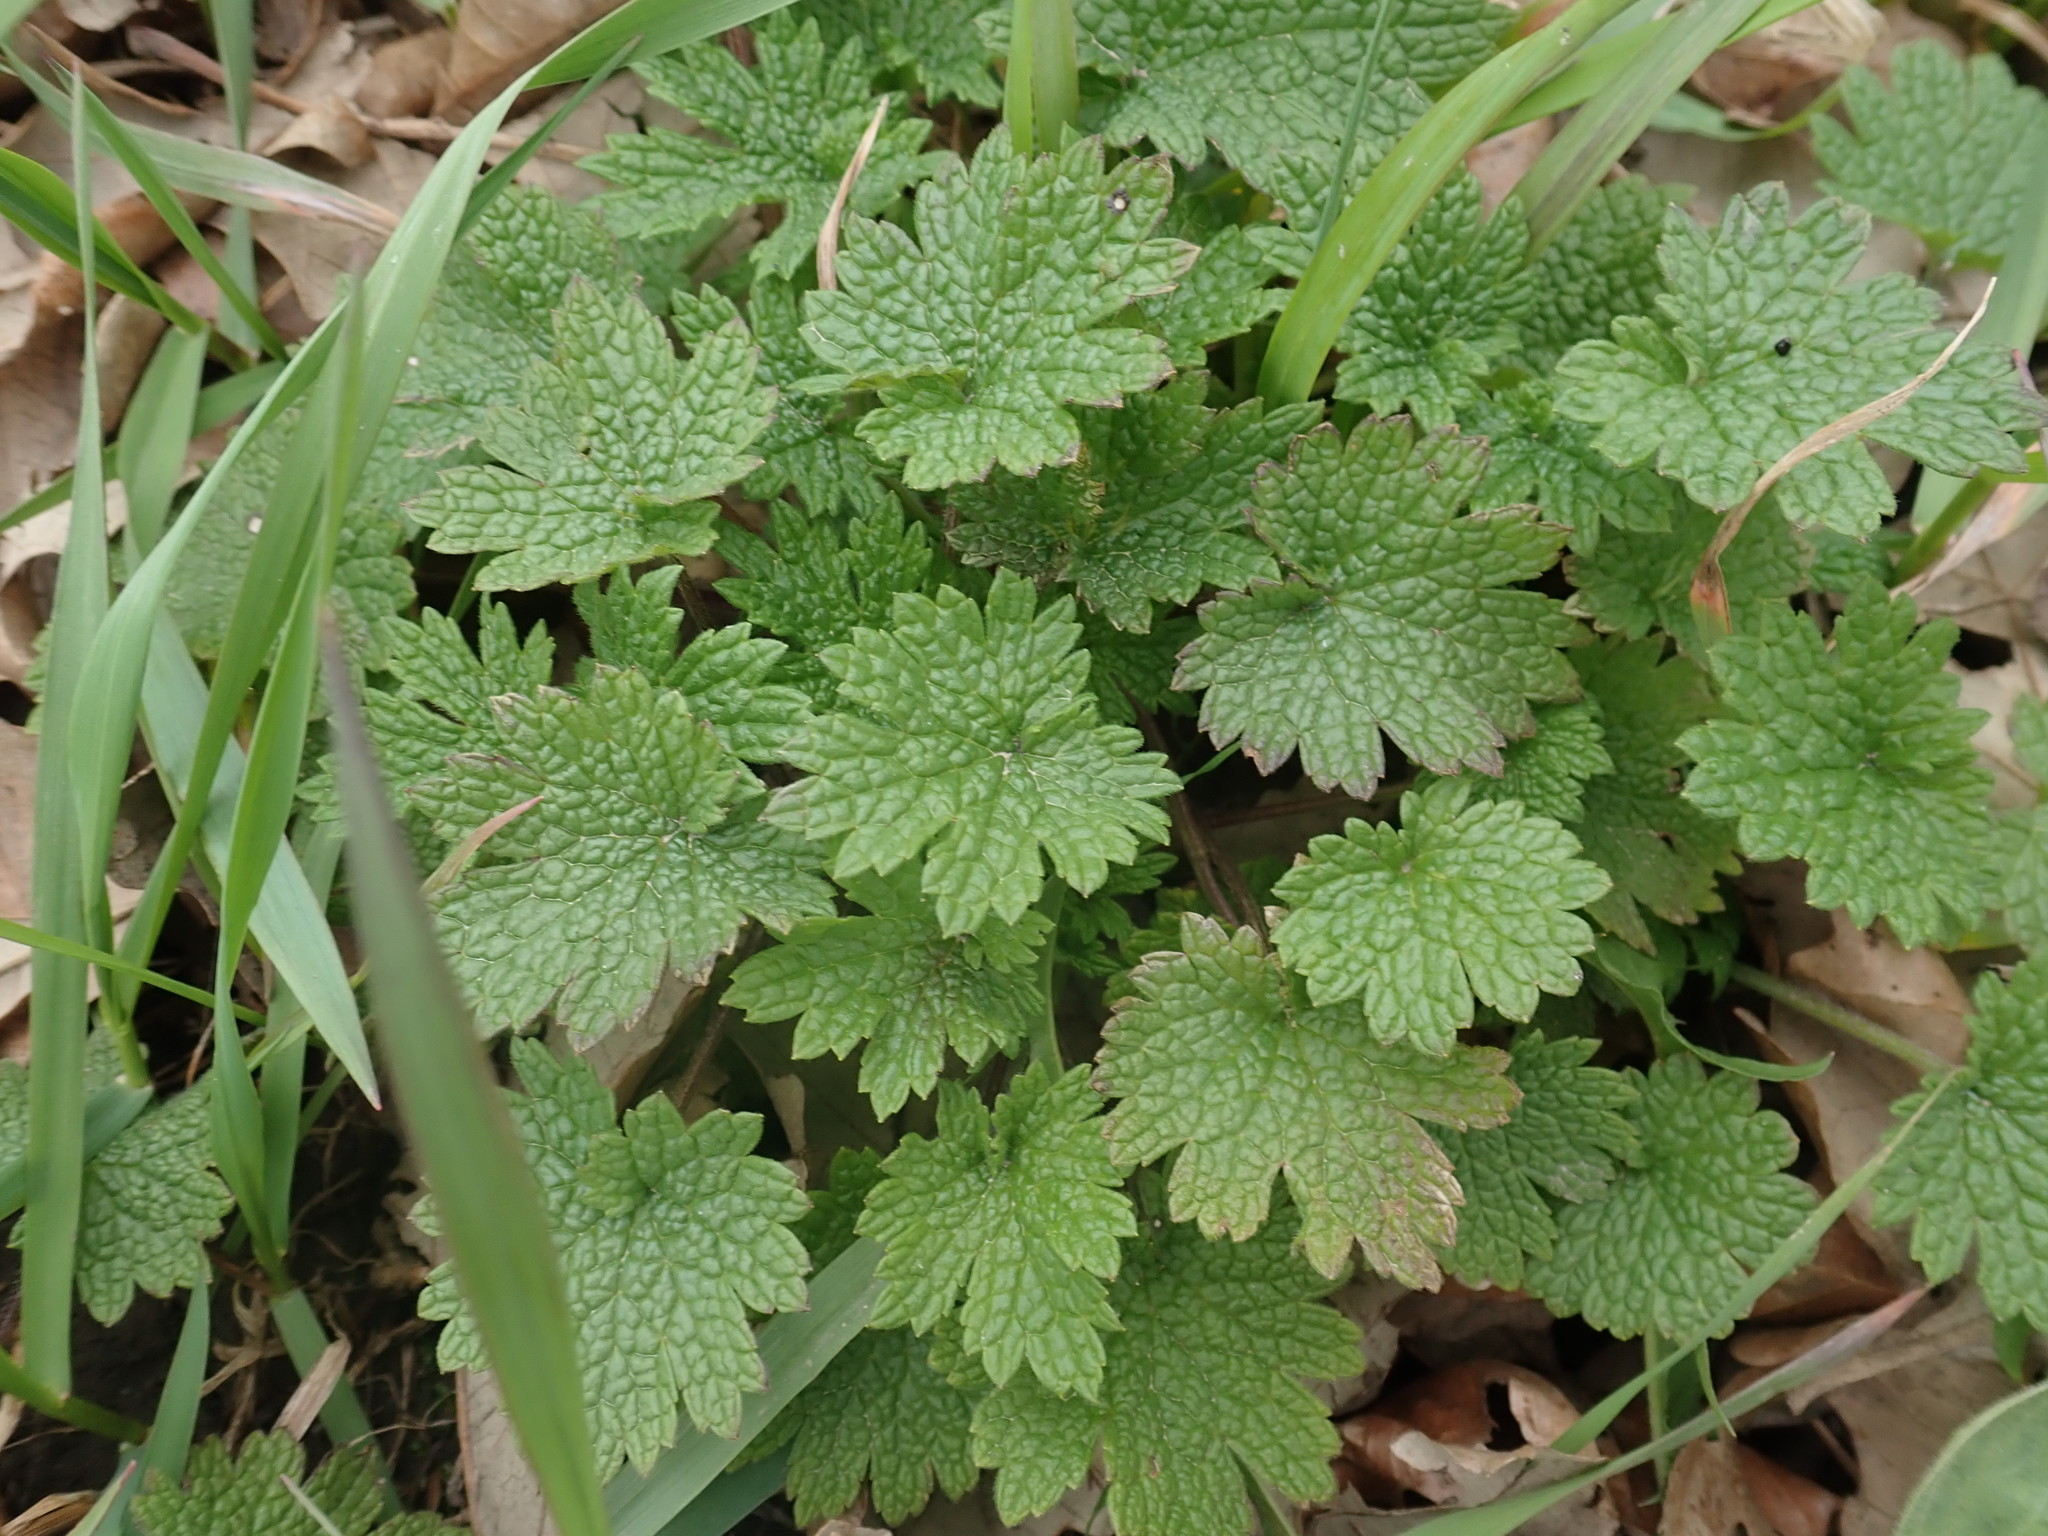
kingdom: Plantae
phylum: Tracheophyta
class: Magnoliopsida
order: Lamiales
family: Lamiaceae
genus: Leonurus
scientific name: Leonurus cardiaca
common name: Motherwort
